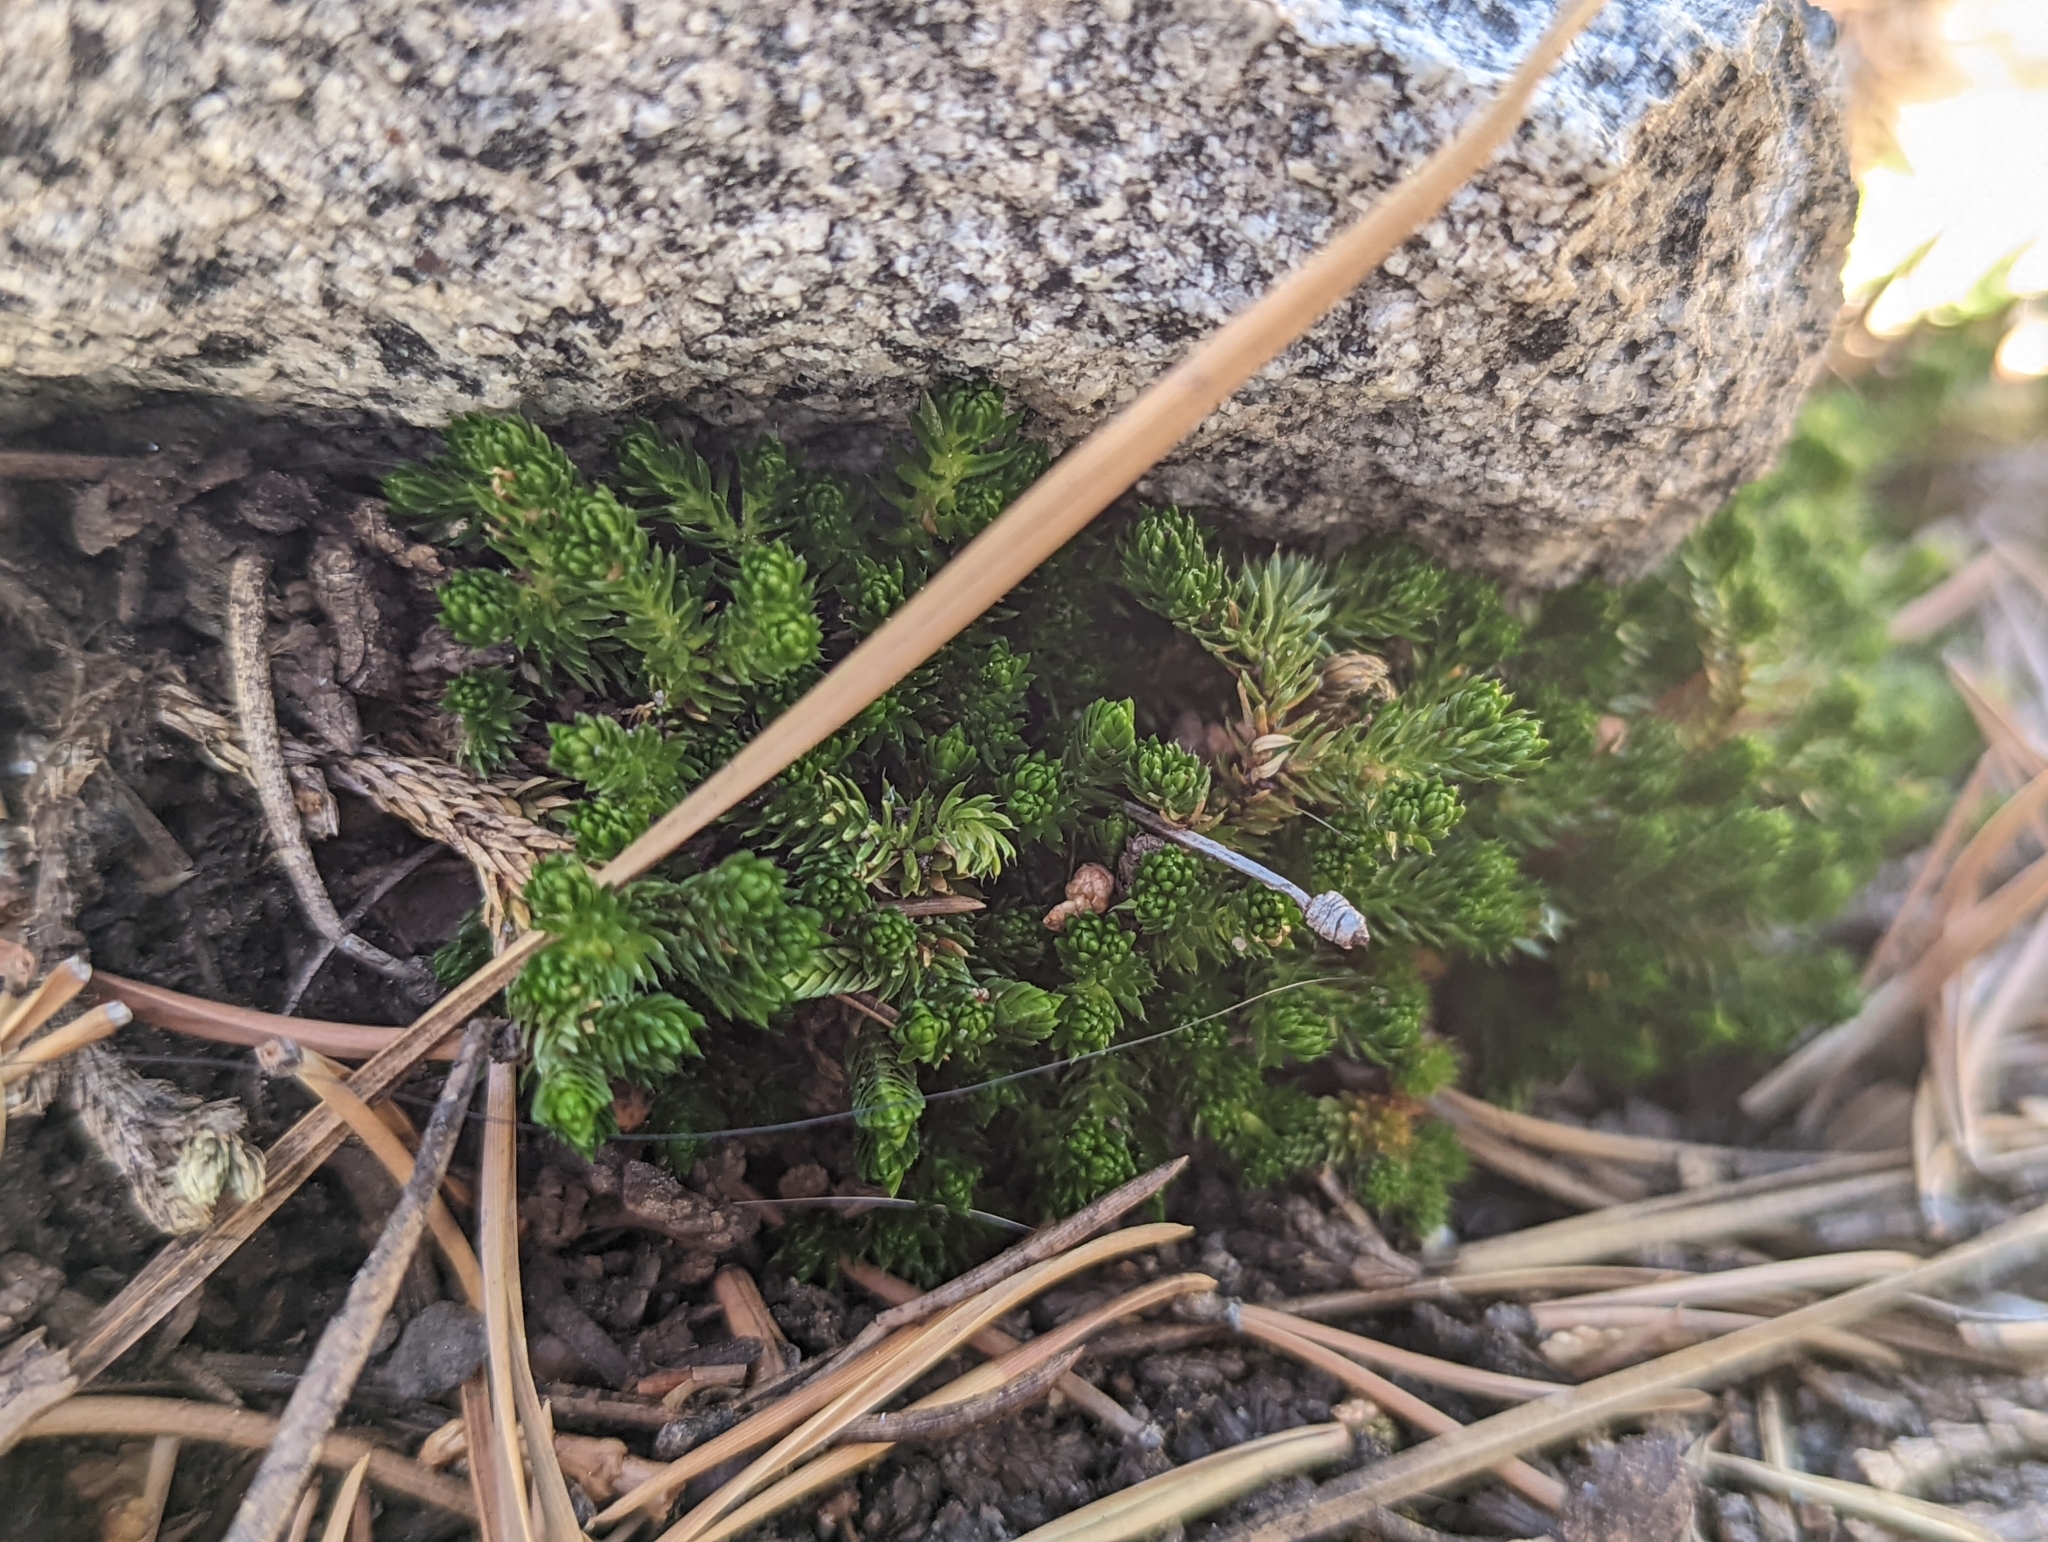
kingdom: Plantae
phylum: Tracheophyta
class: Lycopodiopsida
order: Selaginellales
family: Selaginellaceae
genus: Selaginella
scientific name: Selaginella watsonii
